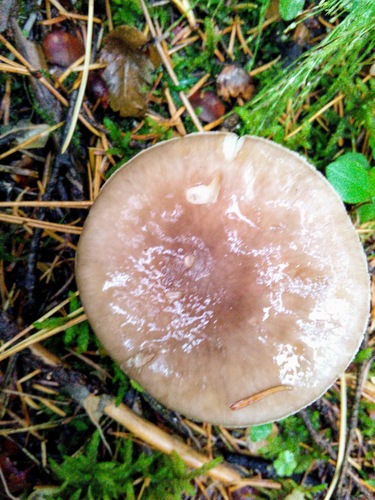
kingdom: Fungi
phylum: Basidiomycota
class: Agaricomycetes
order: Agaricales
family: Amanitaceae
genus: Amanita
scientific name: Amanita porphyria
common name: Grey veiled amanita
